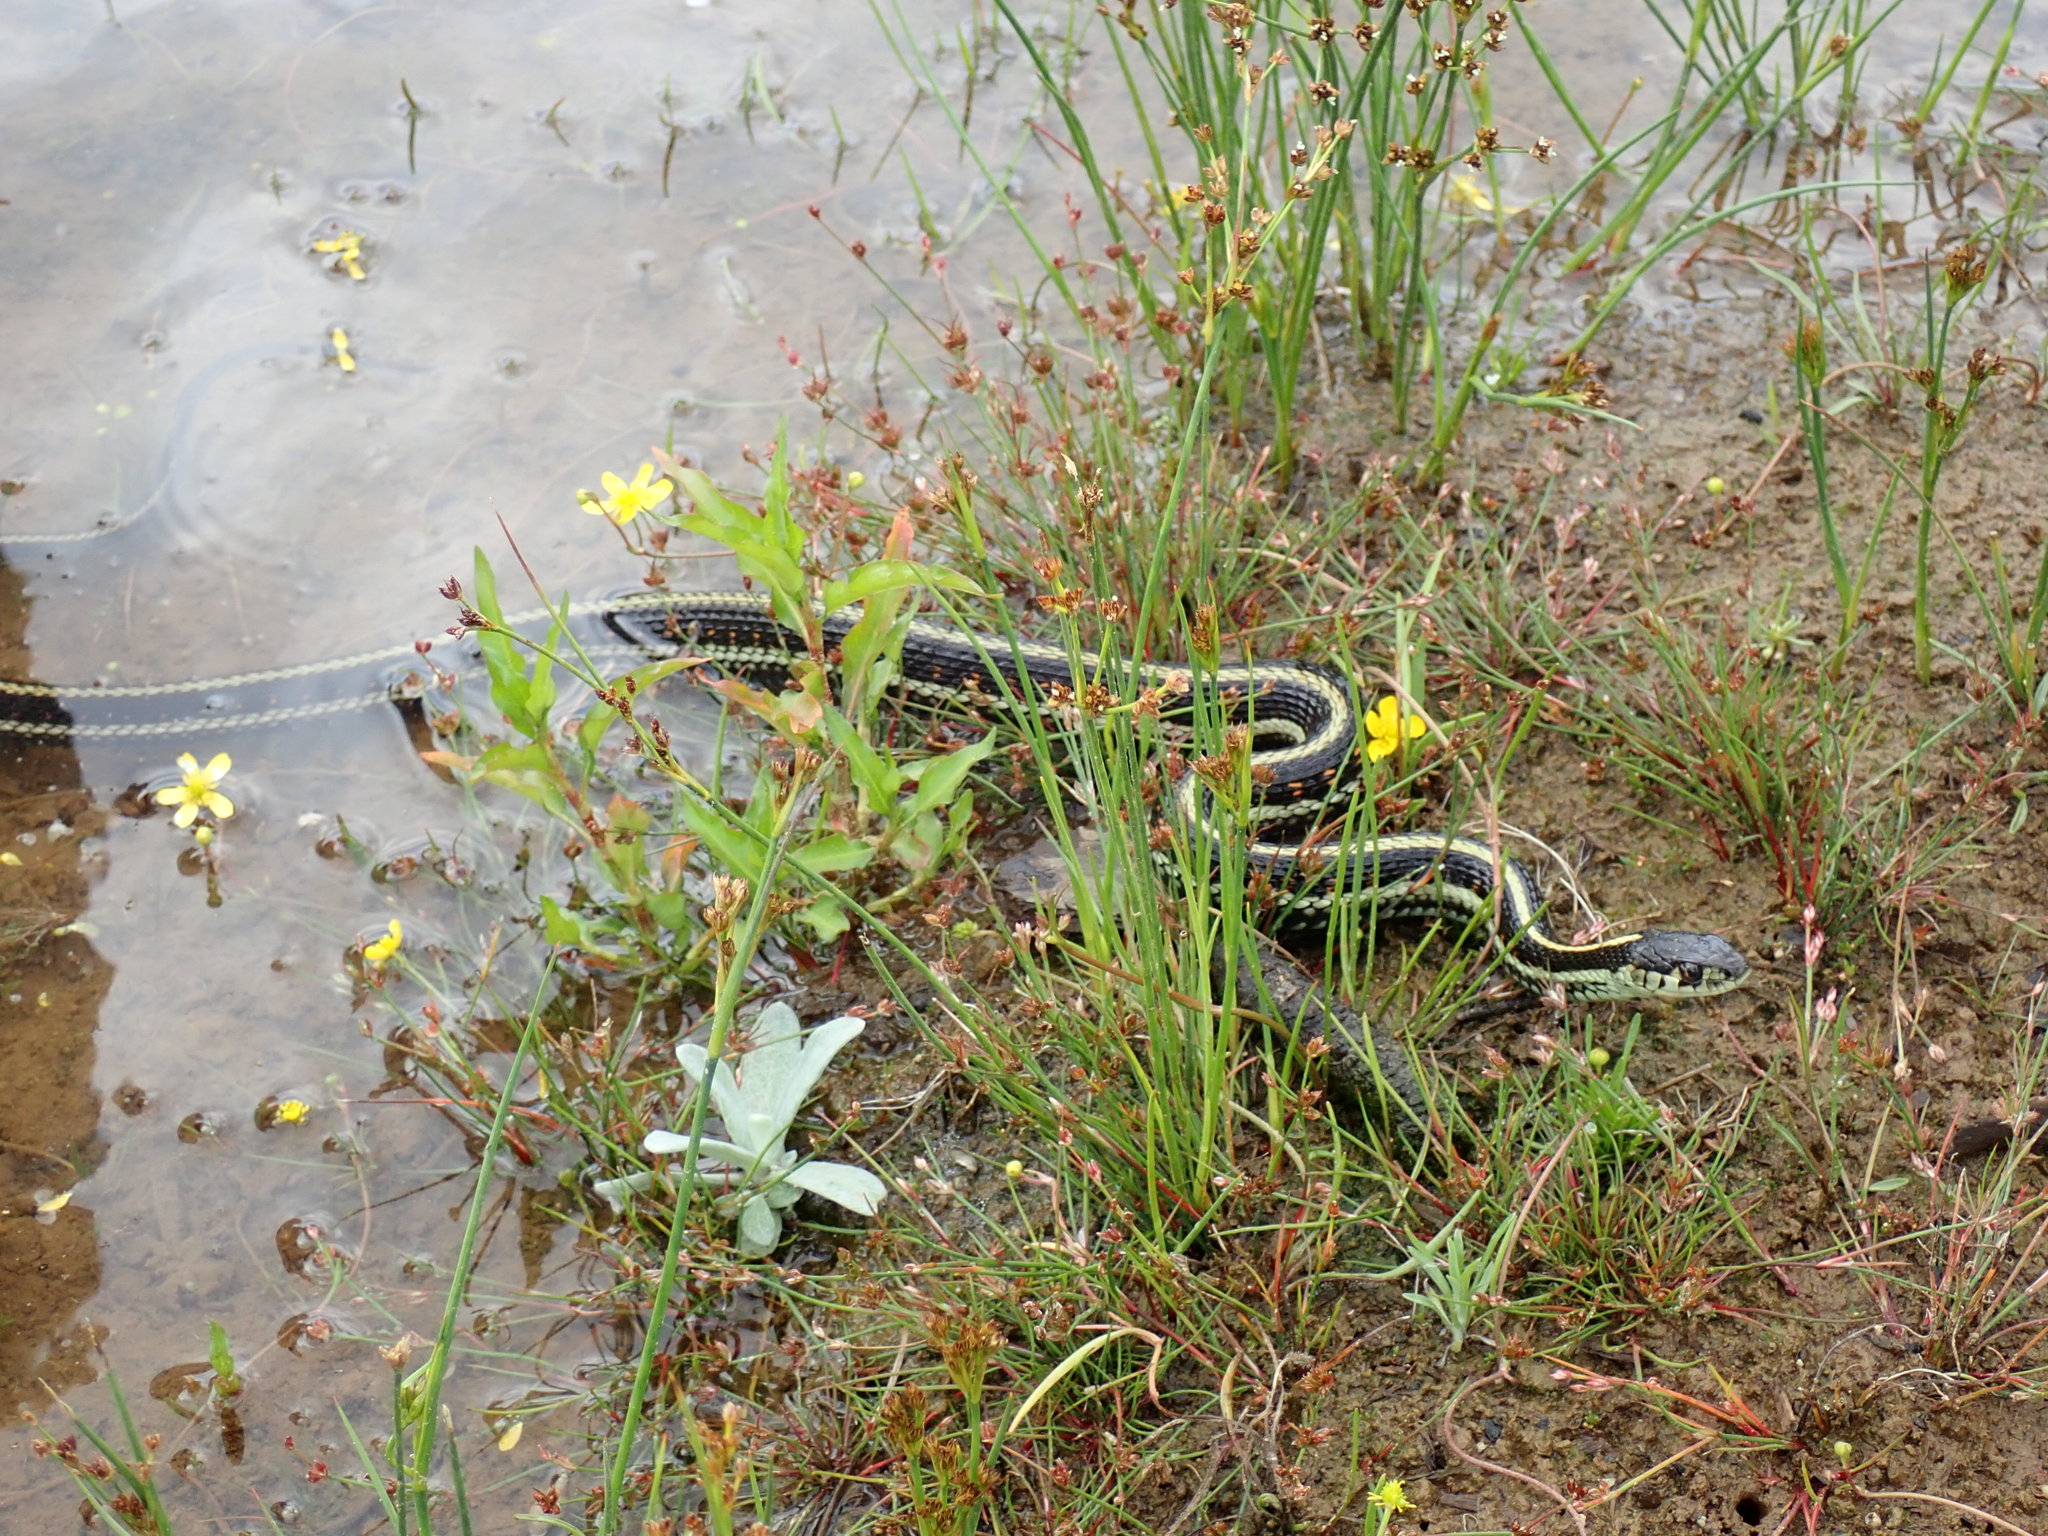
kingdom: Animalia
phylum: Chordata
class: Squamata
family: Colubridae
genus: Thamnophis
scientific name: Thamnophis sirtalis
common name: Common garter snake
